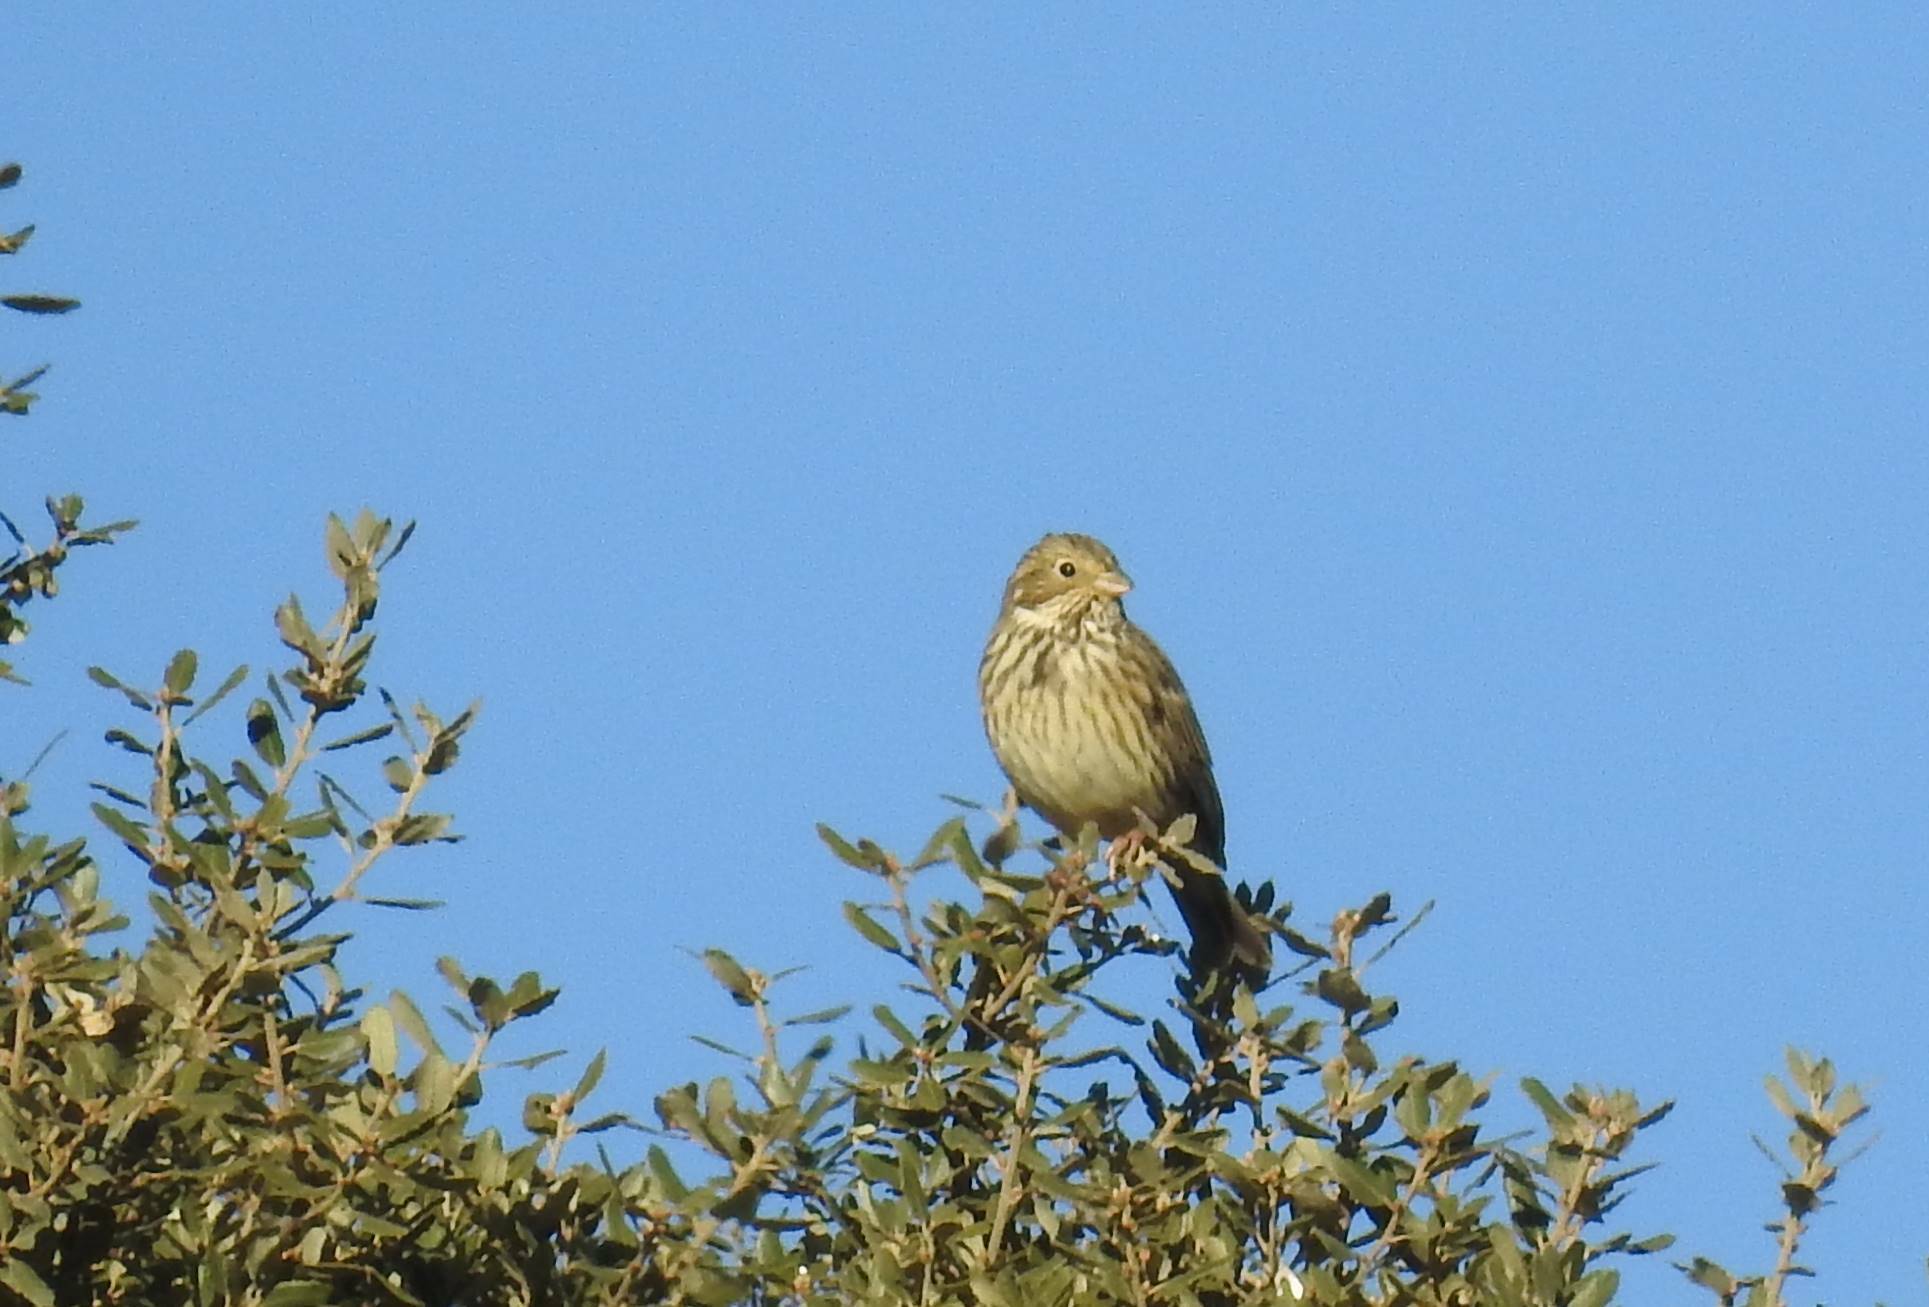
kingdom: Animalia
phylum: Chordata
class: Aves
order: Passeriformes
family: Emberizidae
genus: Emberiza
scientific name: Emberiza calandra
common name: Corn bunting
